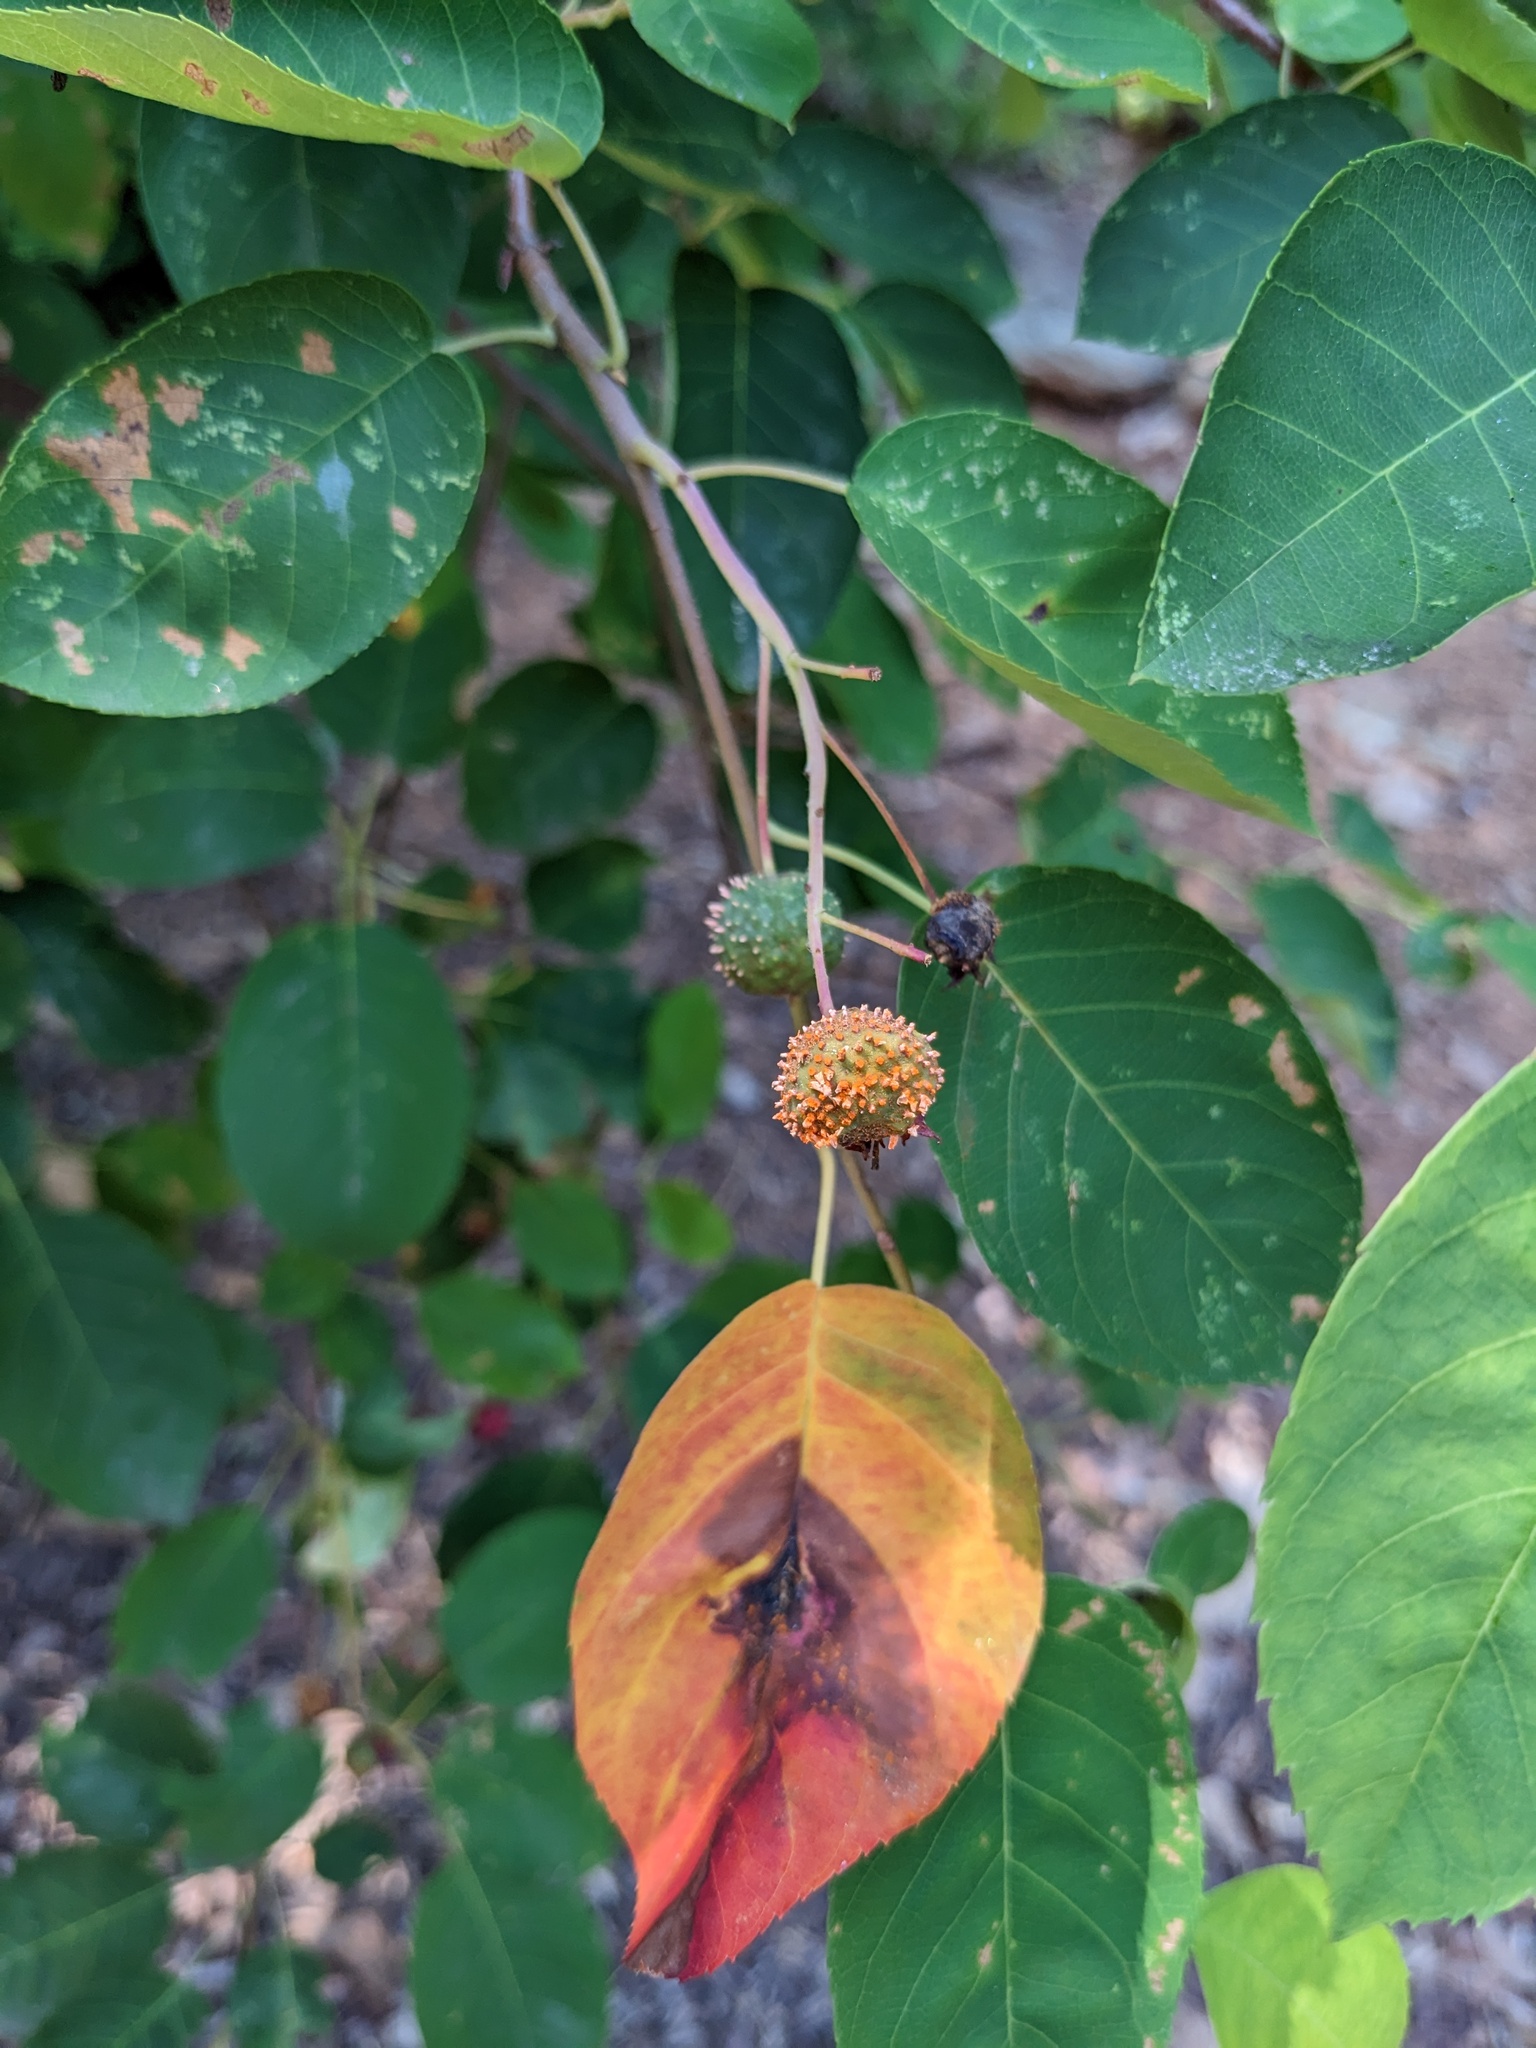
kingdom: Fungi
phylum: Basidiomycota
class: Pucciniomycetes
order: Pucciniales
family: Gymnosporangiaceae
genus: Gymnosporangium
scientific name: Gymnosporangium clavipes
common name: Quince rust
